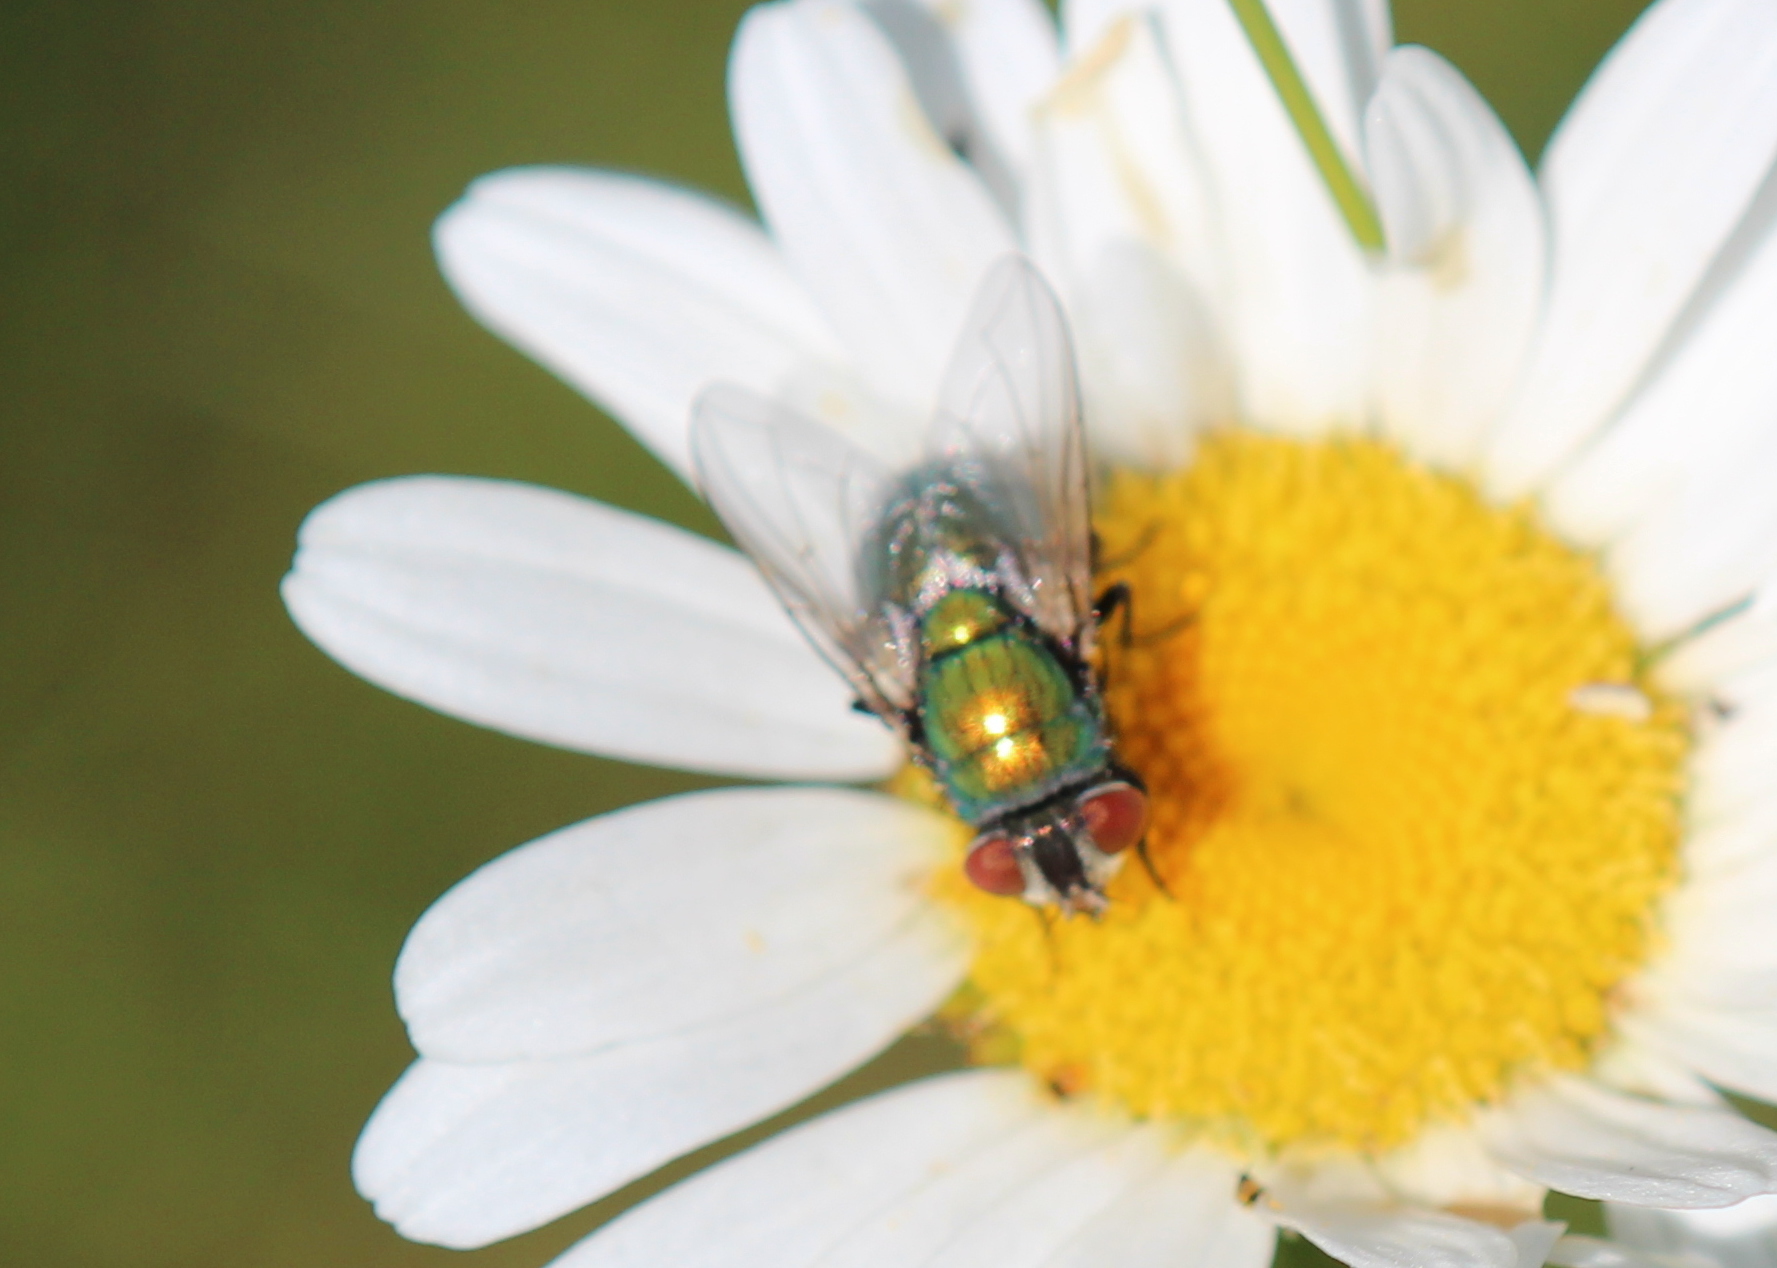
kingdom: Animalia
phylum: Arthropoda
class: Insecta
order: Diptera
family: Calliphoridae
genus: Lucilia
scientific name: Lucilia sericata
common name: Blow fly
